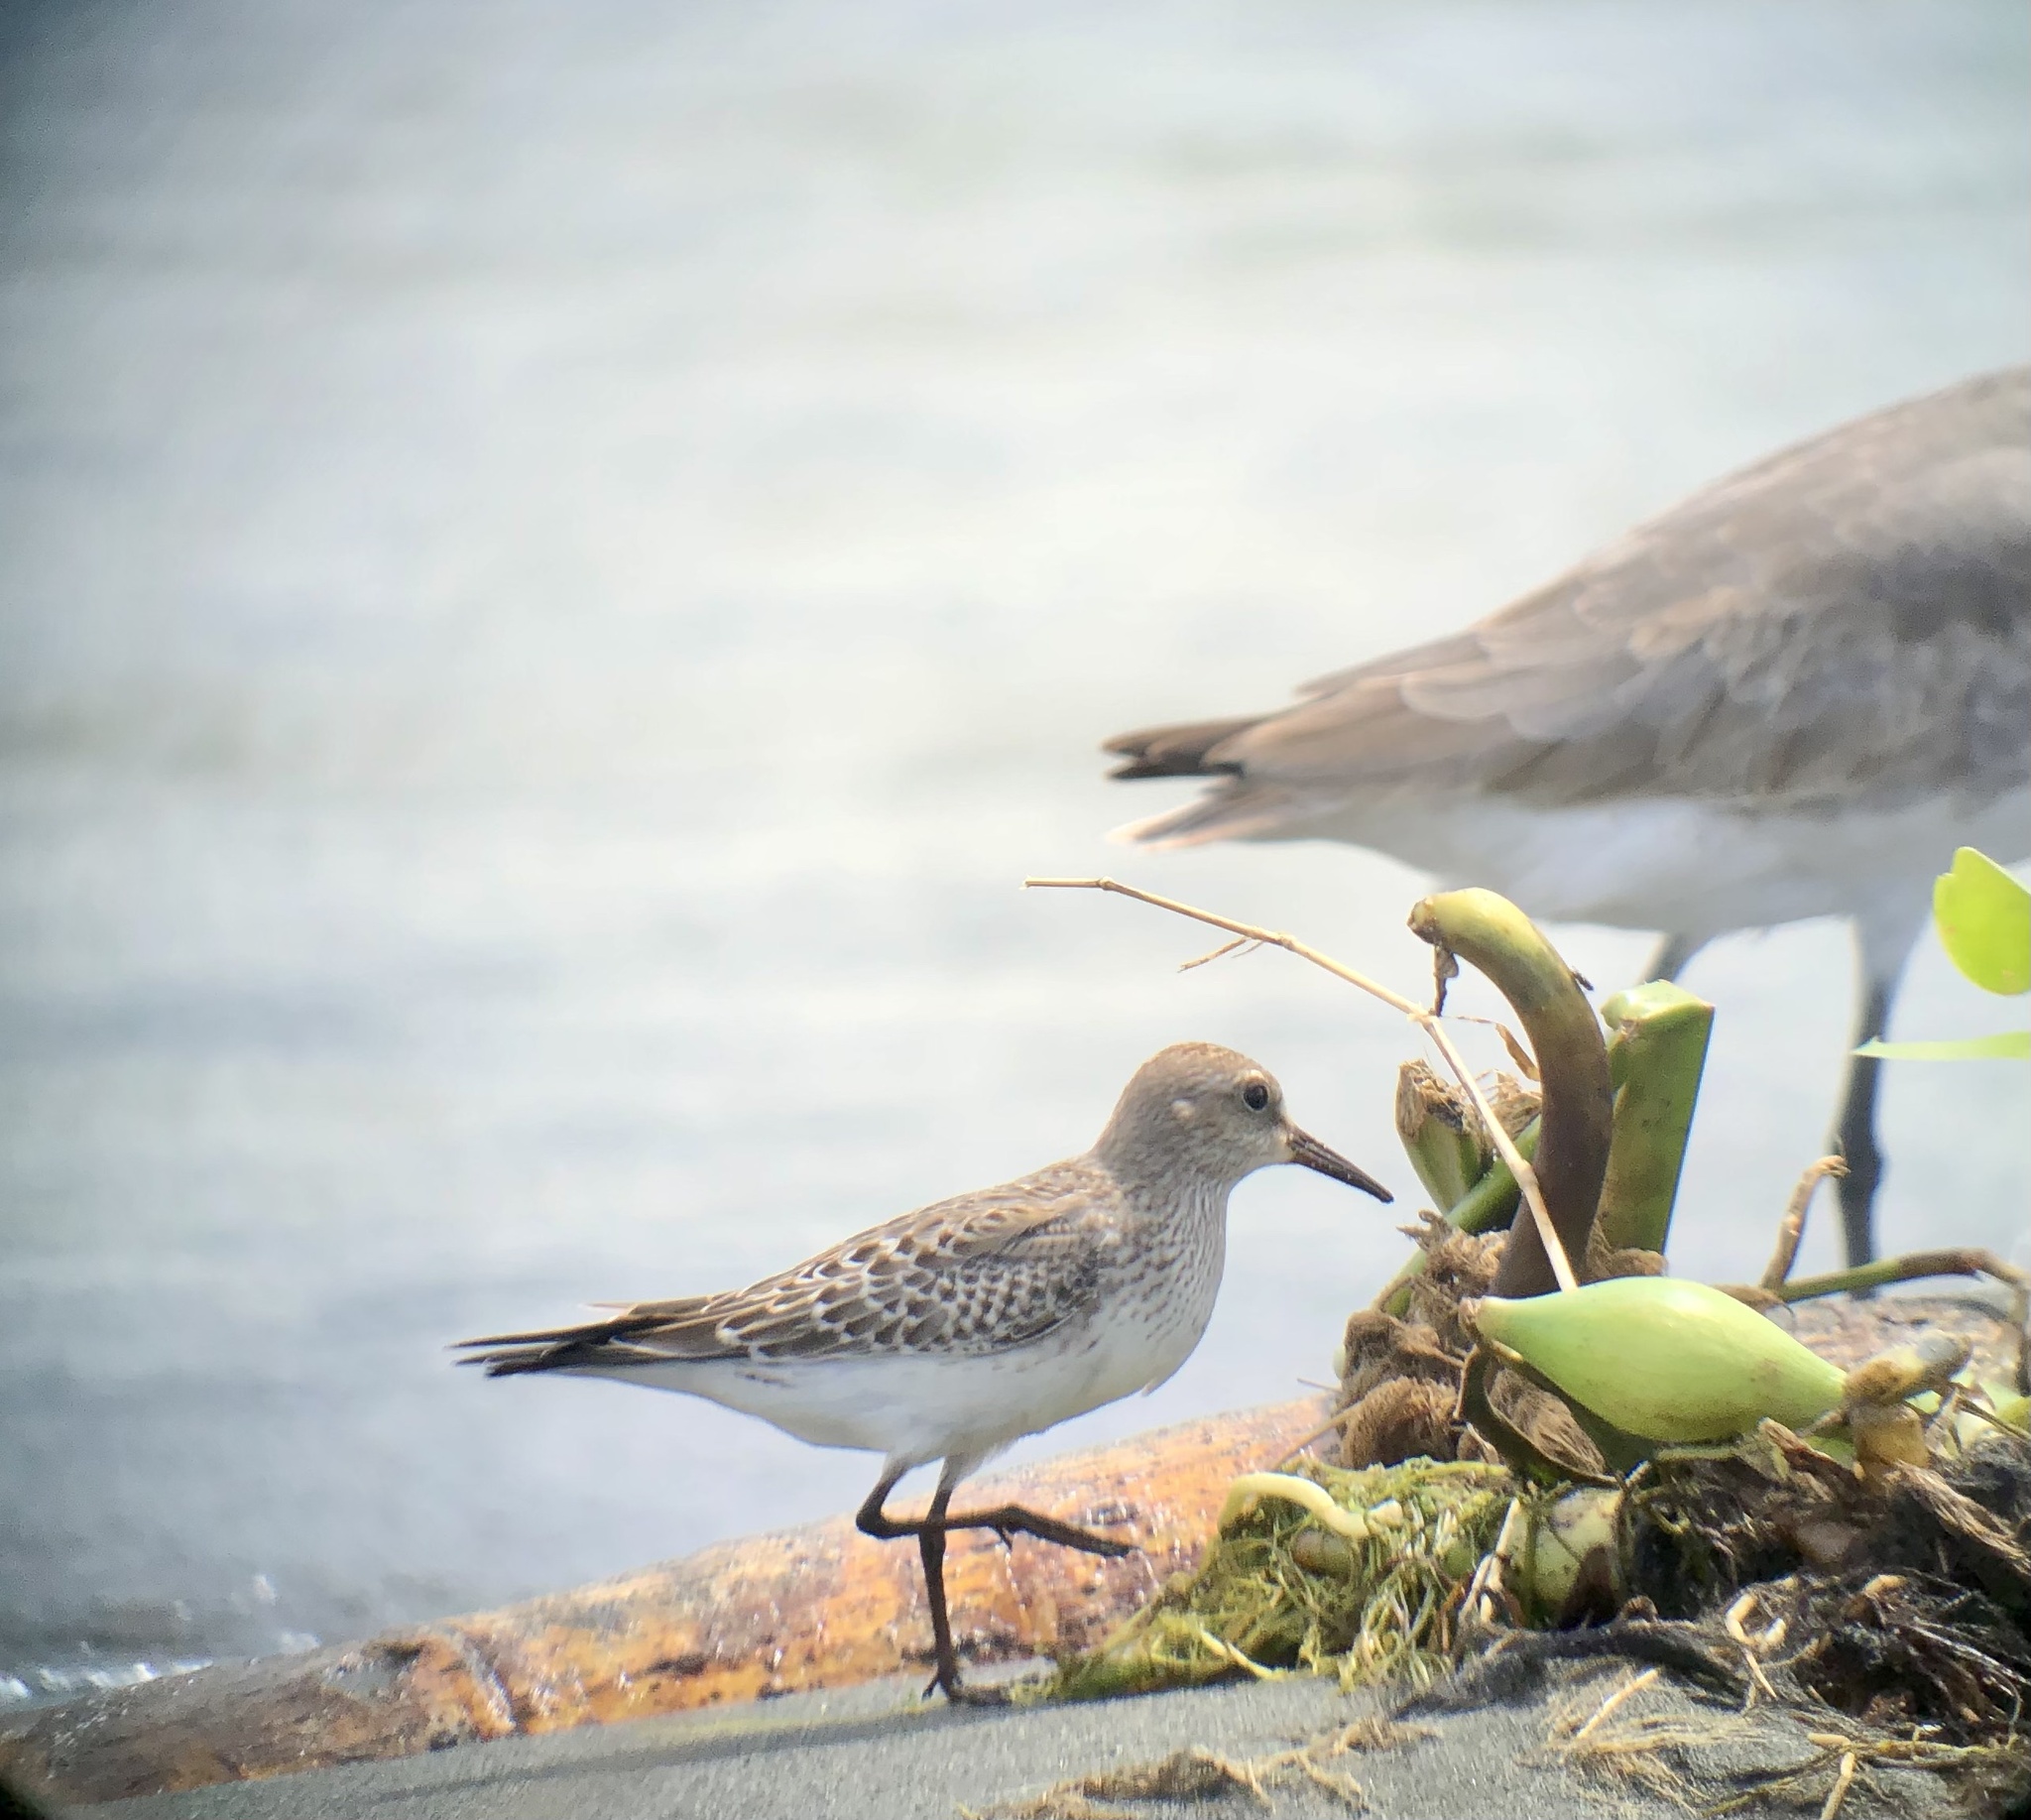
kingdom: Animalia
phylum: Chordata
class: Aves
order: Charadriiformes
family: Scolopacidae
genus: Calidris
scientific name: Calidris fuscicollis
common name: White-rumped sandpiper
